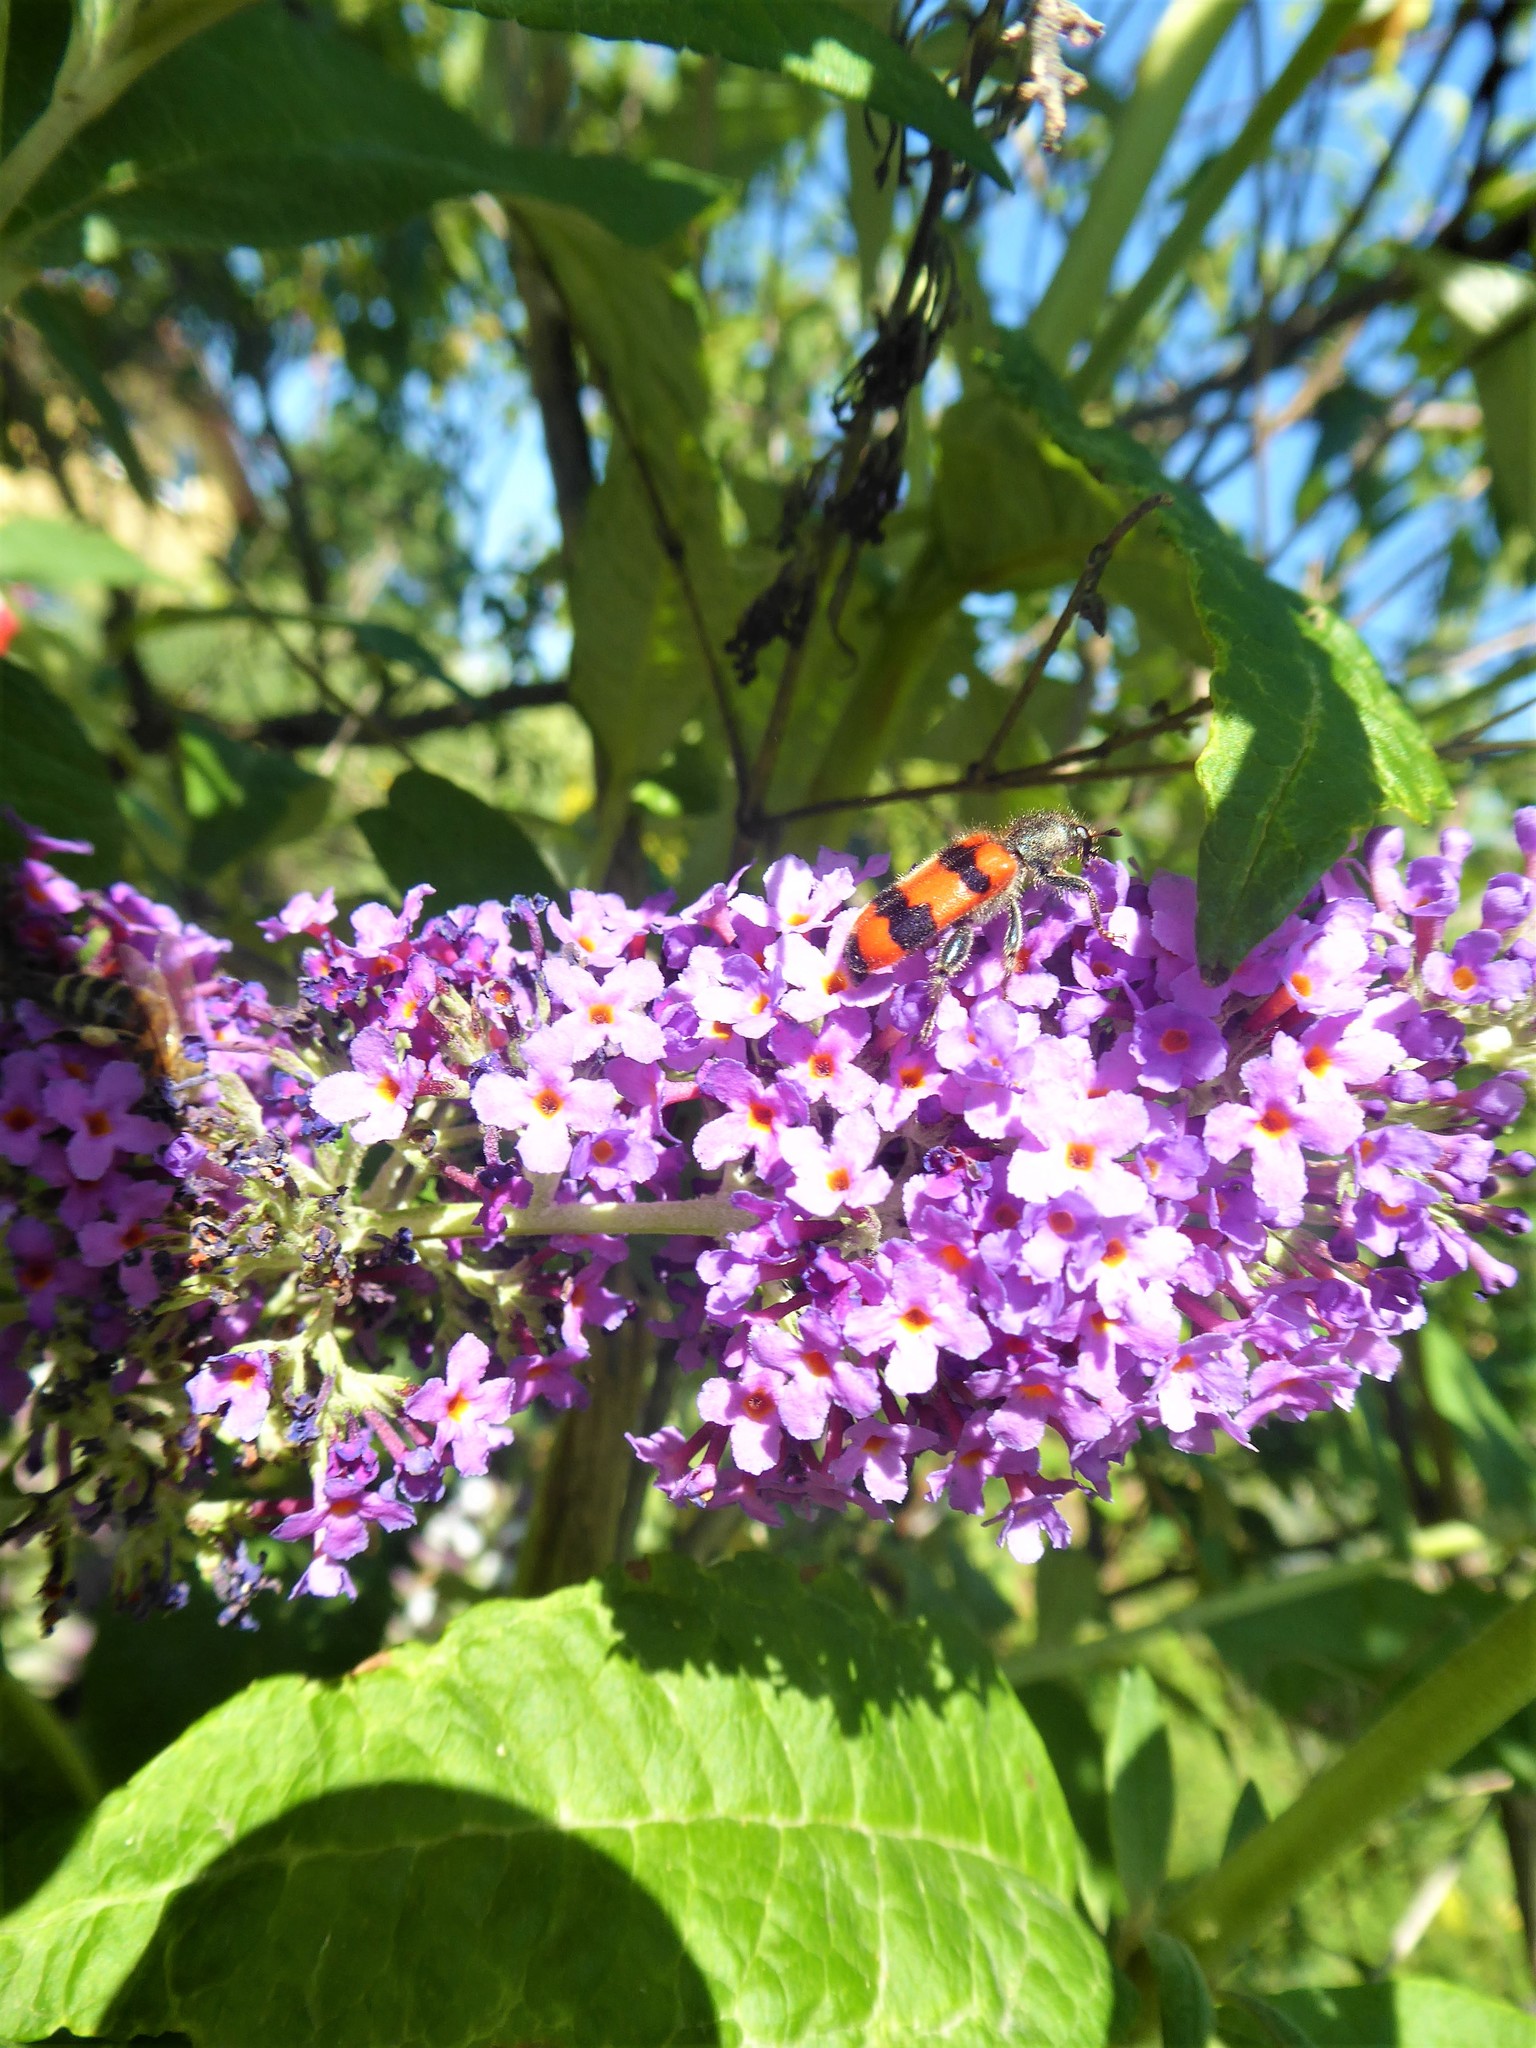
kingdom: Animalia
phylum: Arthropoda
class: Insecta
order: Coleoptera
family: Cleridae
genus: Trichodes
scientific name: Trichodes apiarius
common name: Bee-eating beetle
